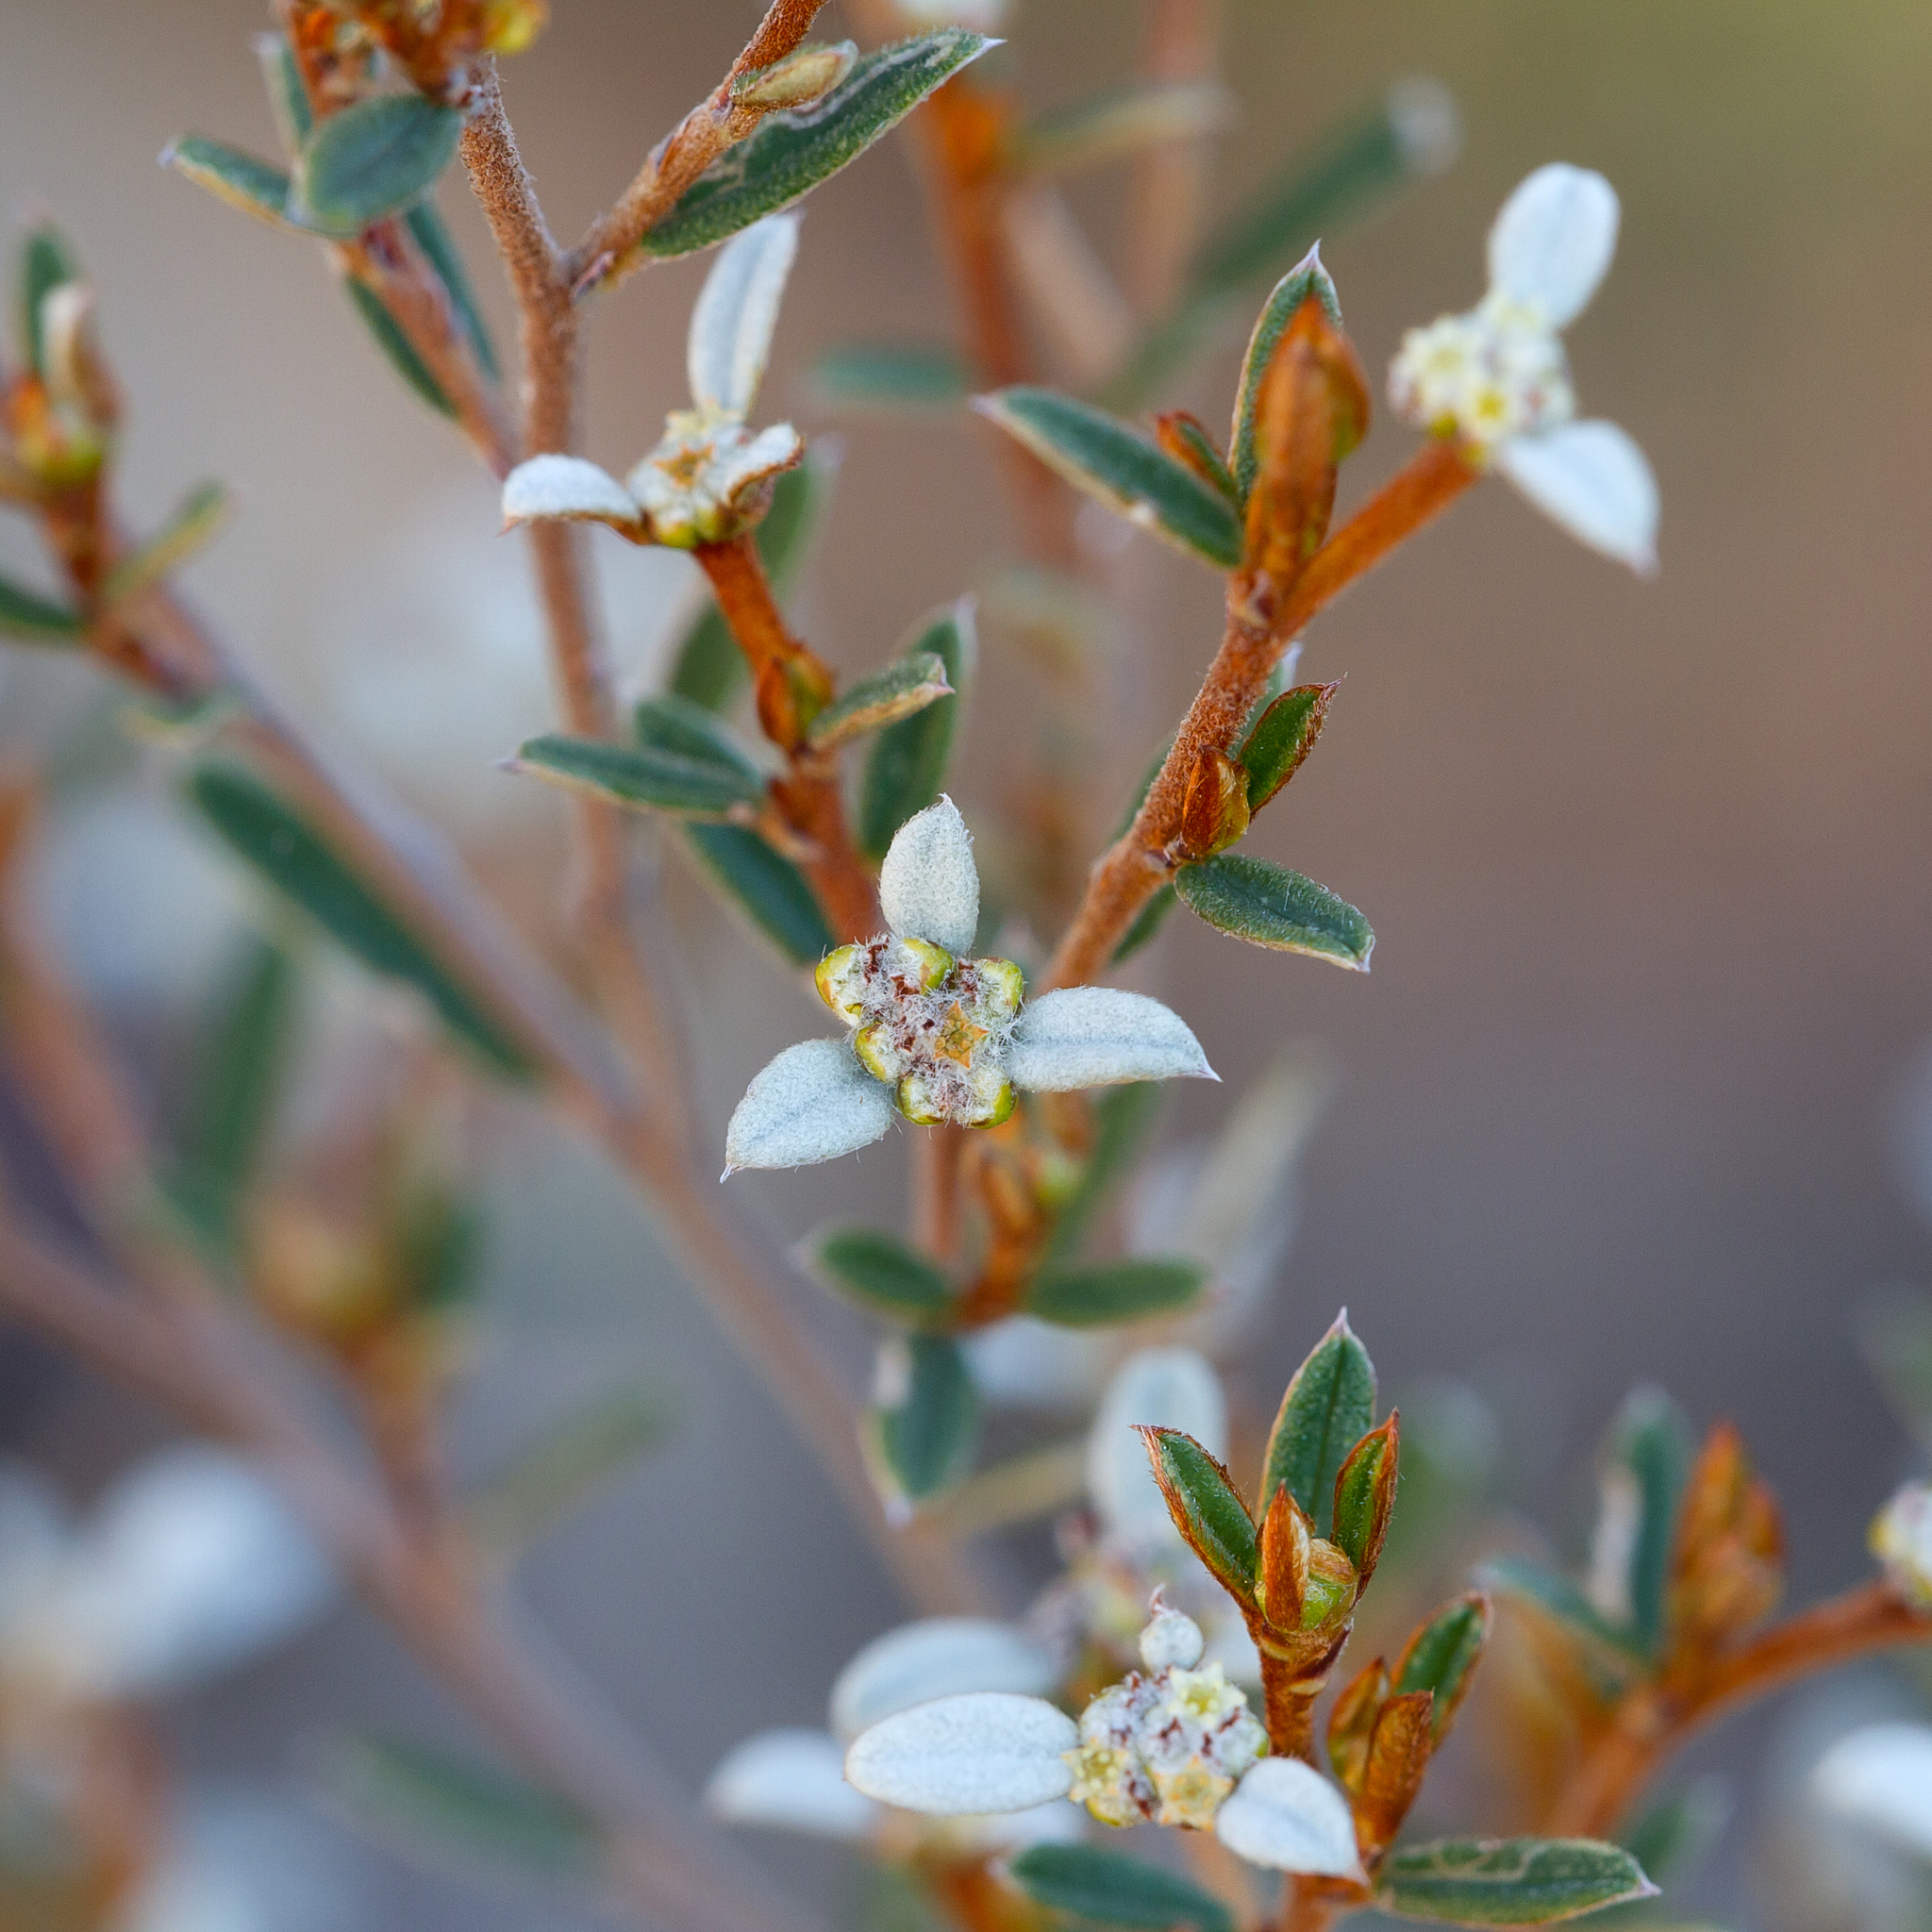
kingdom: Plantae
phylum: Tracheophyta
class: Magnoliopsida
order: Rosales
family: Rhamnaceae
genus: Spyridium
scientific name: Spyridium vexilliferum
